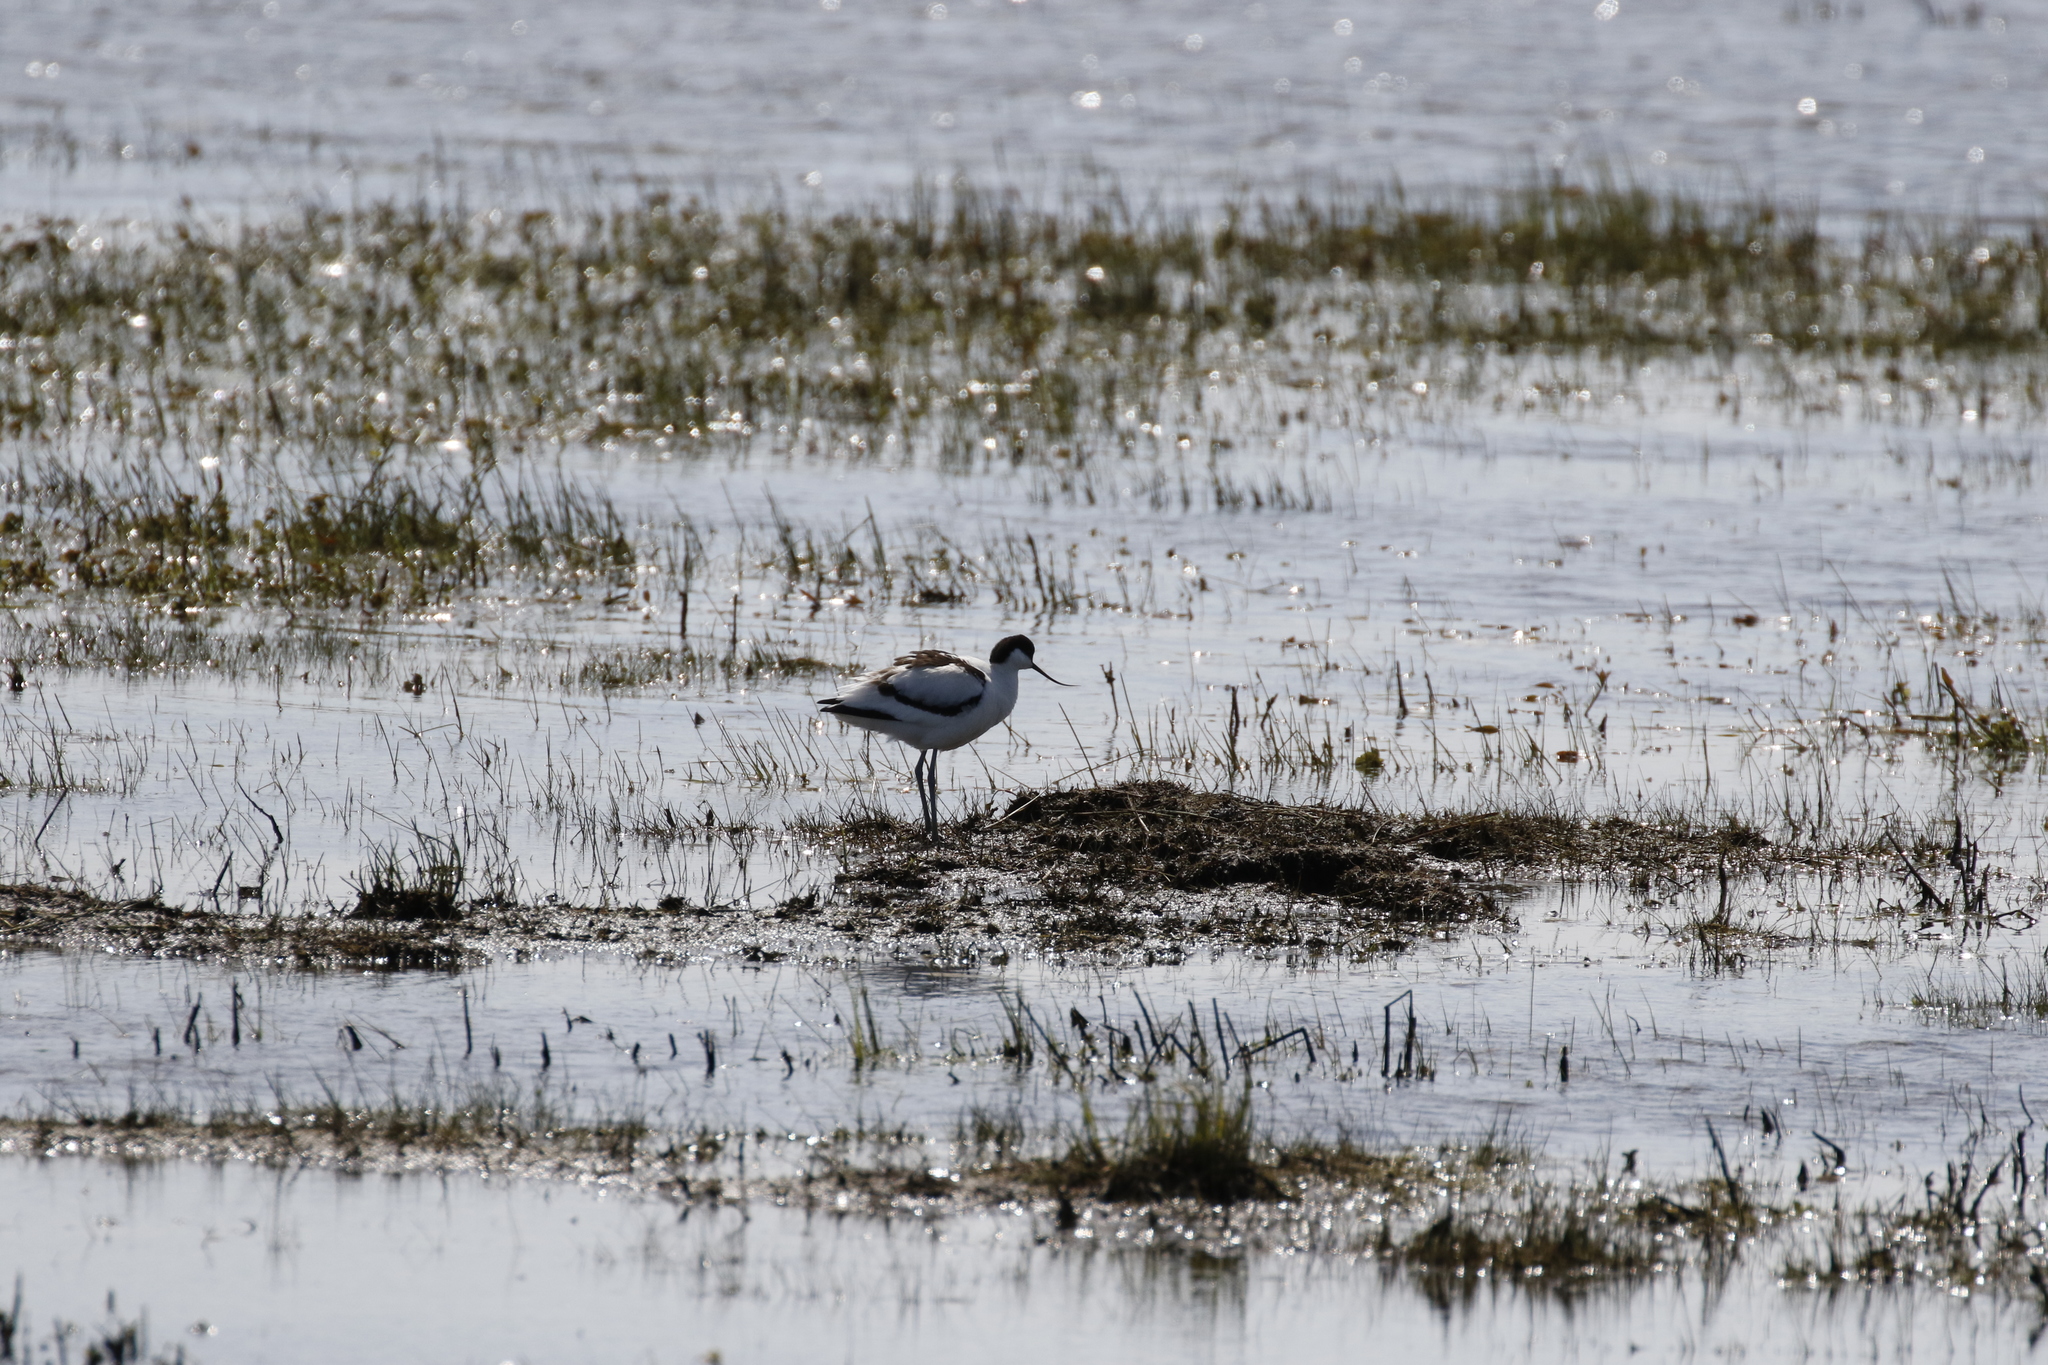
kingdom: Animalia
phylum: Chordata
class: Aves
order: Charadriiformes
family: Recurvirostridae
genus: Recurvirostra
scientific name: Recurvirostra avosetta
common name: Pied avocet
